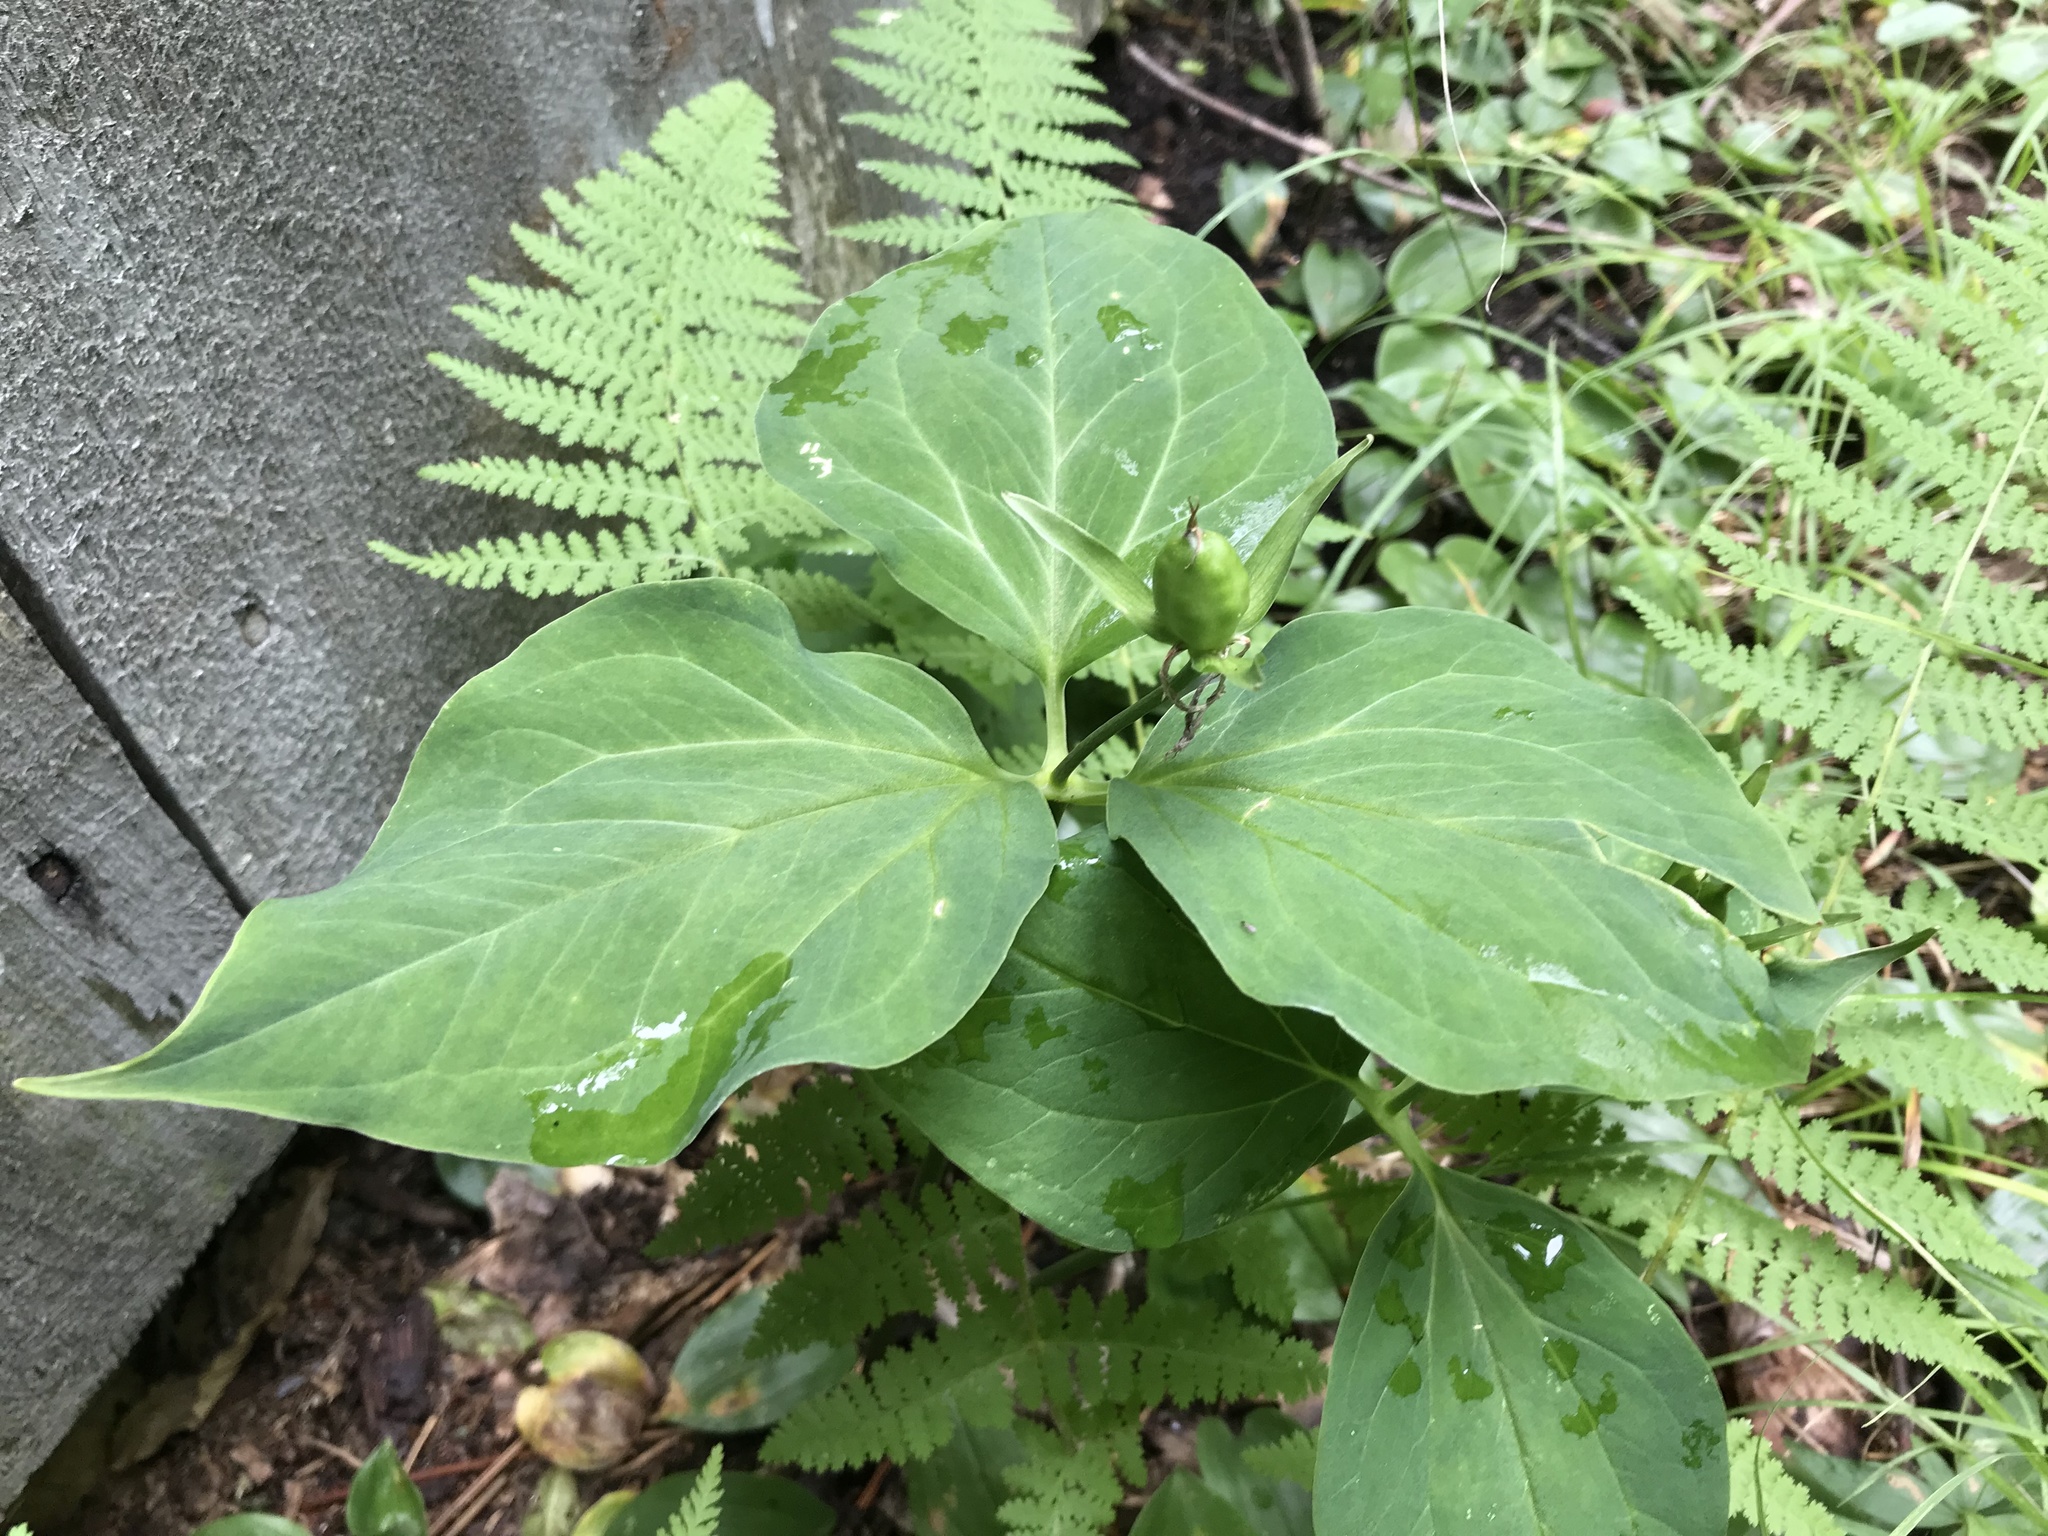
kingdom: Plantae
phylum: Tracheophyta
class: Liliopsida
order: Liliales
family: Melanthiaceae
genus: Trillium
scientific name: Trillium undulatum
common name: Paint trillium
